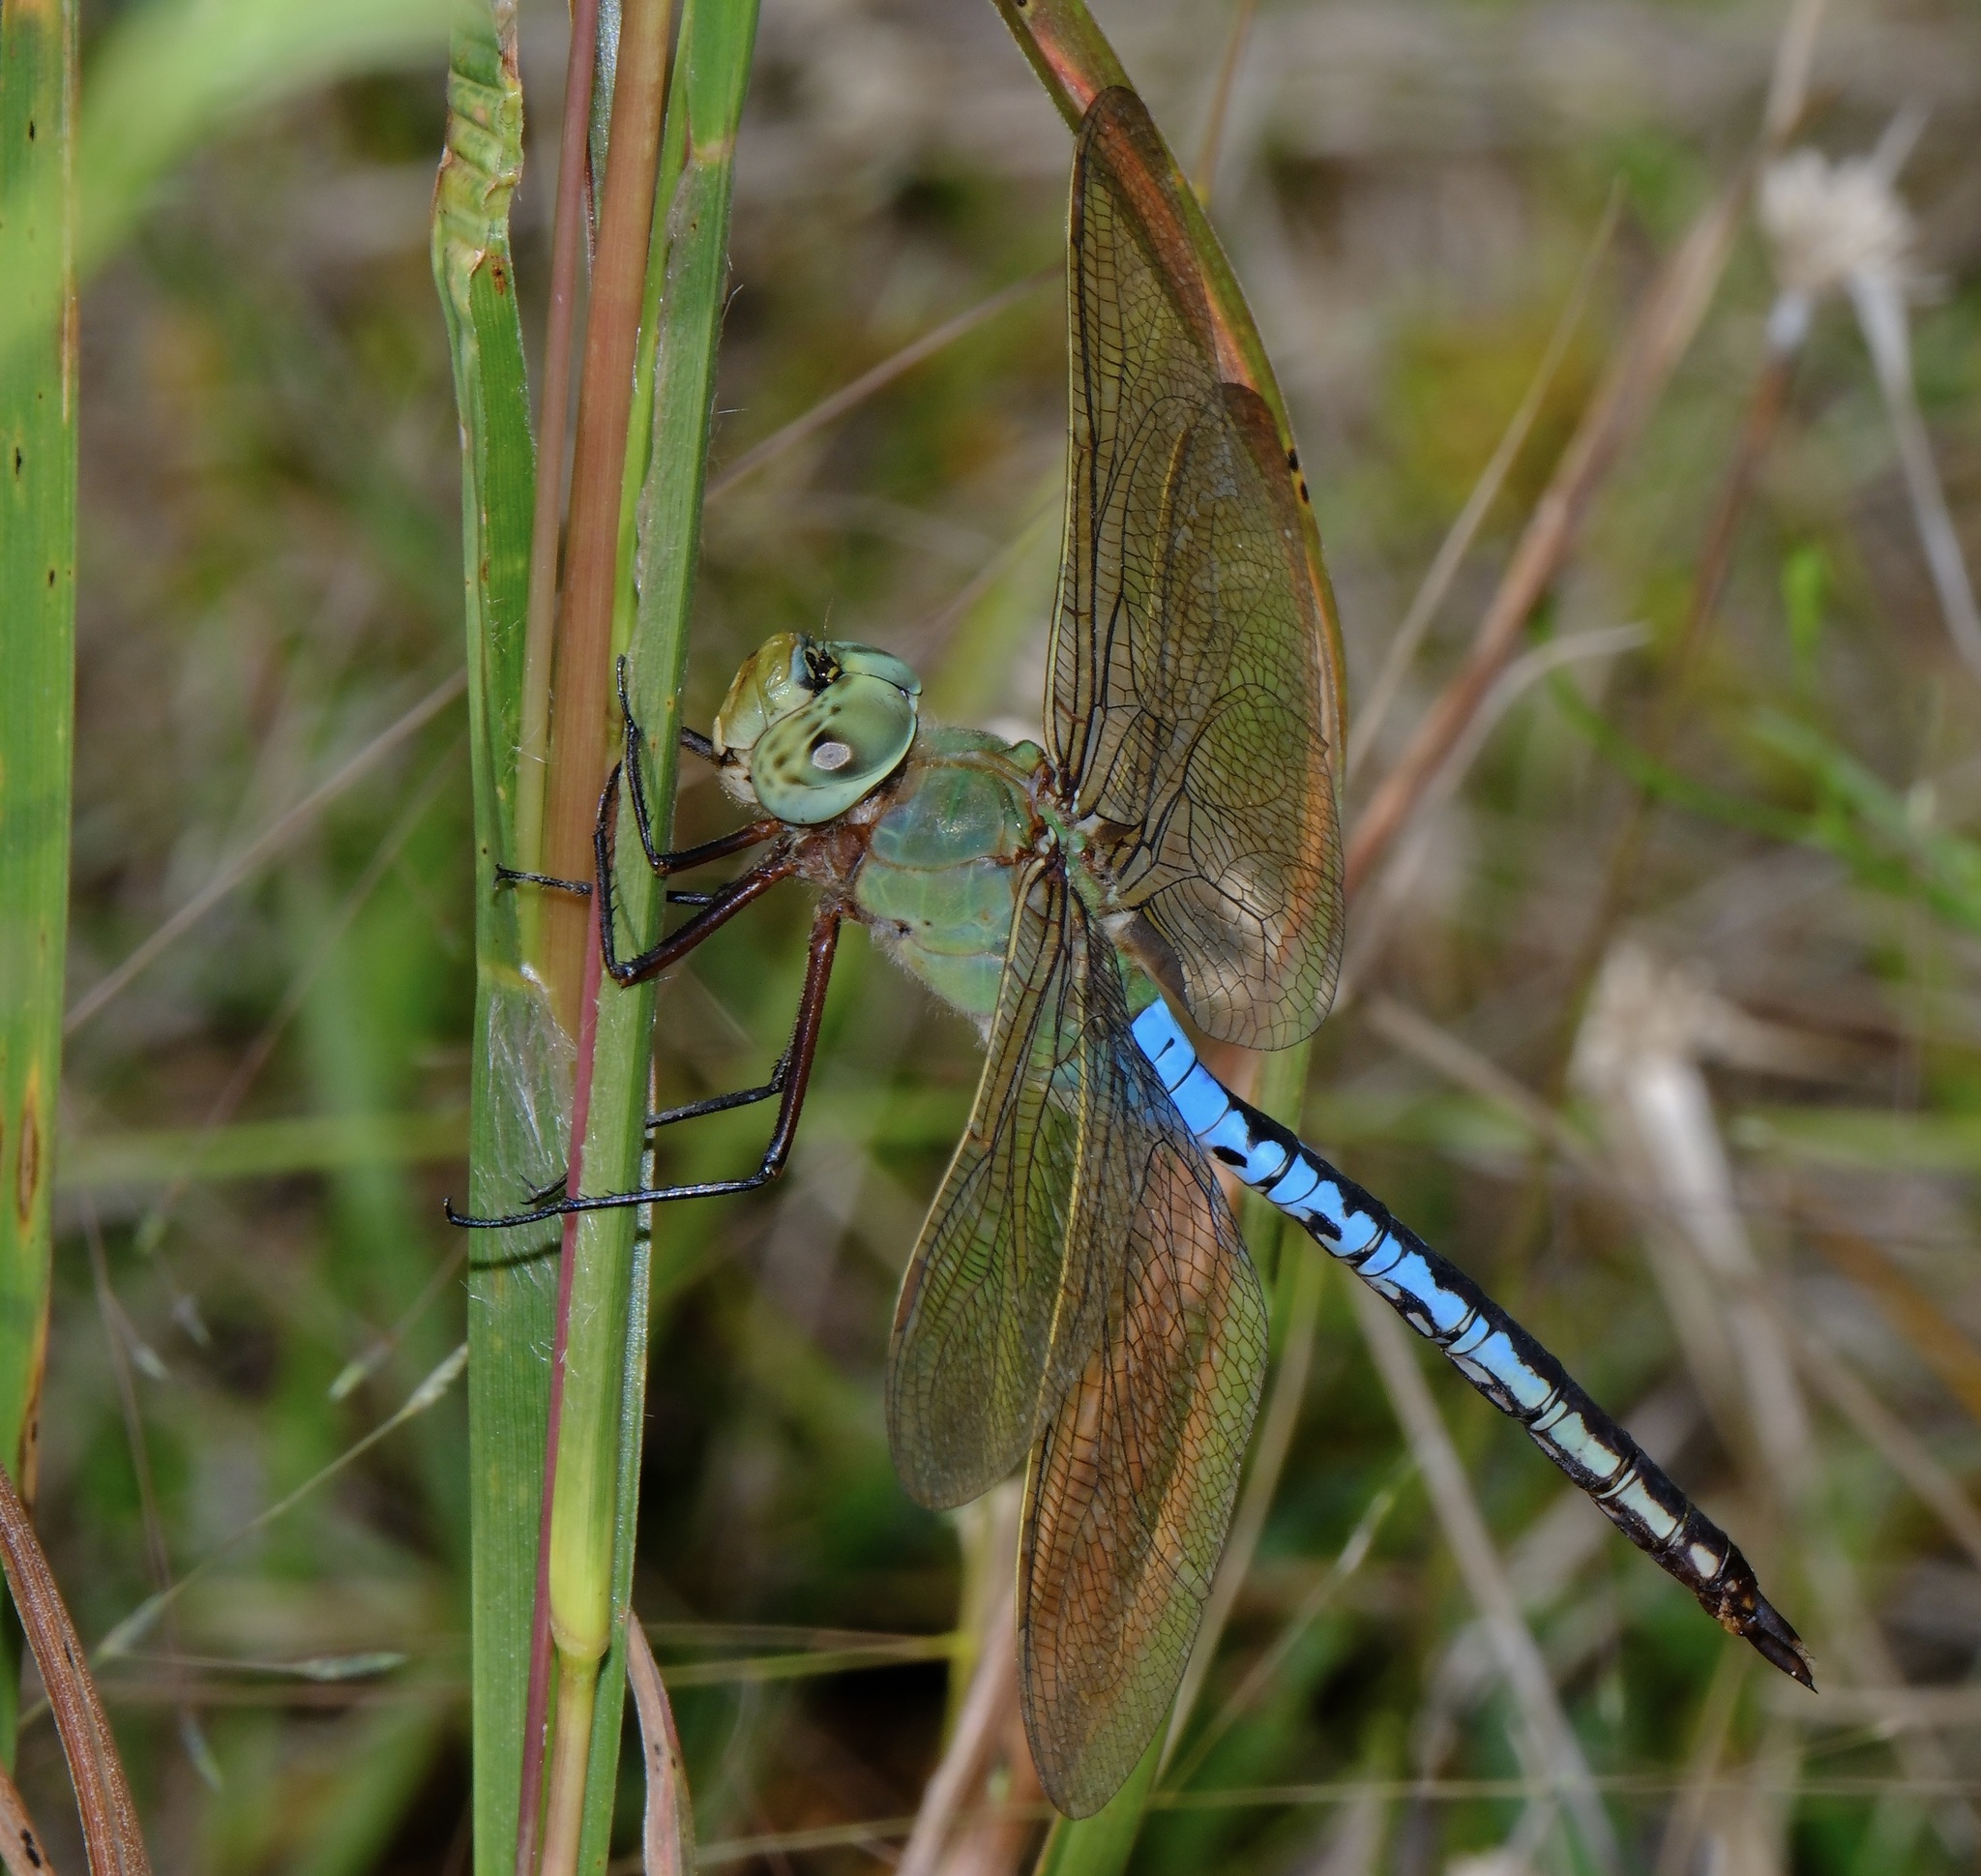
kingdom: Animalia
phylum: Arthropoda
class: Insecta
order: Odonata
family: Aeshnidae
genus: Anax
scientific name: Anax junius
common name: Common green darner
